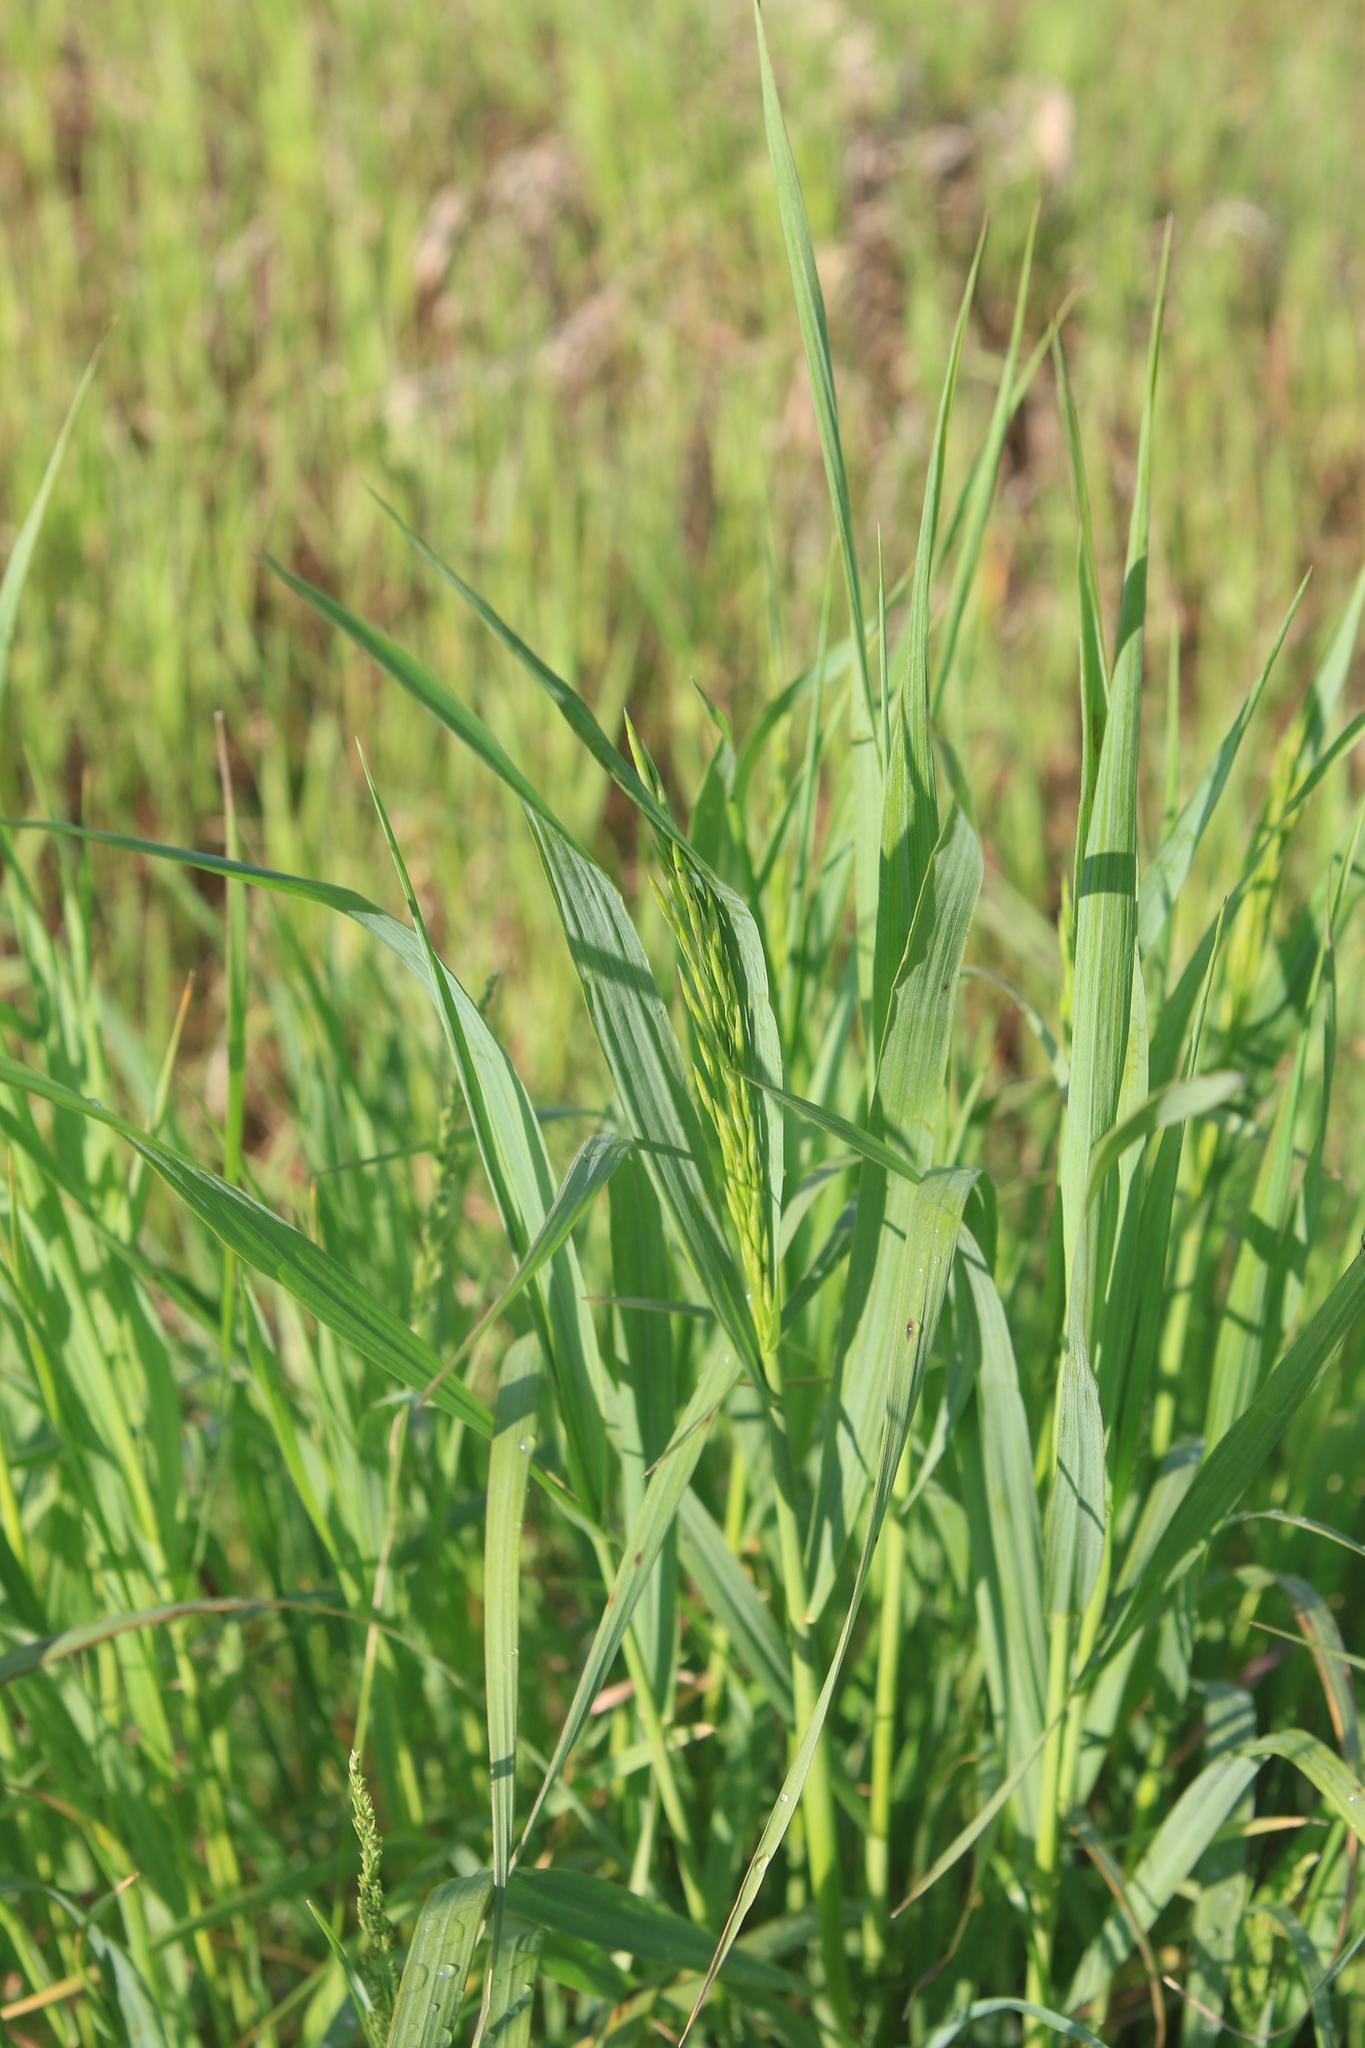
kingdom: Plantae
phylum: Tracheophyta
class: Liliopsida
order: Poales
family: Poaceae
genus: Bromus
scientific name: Bromus inermis
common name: Smooth brome
